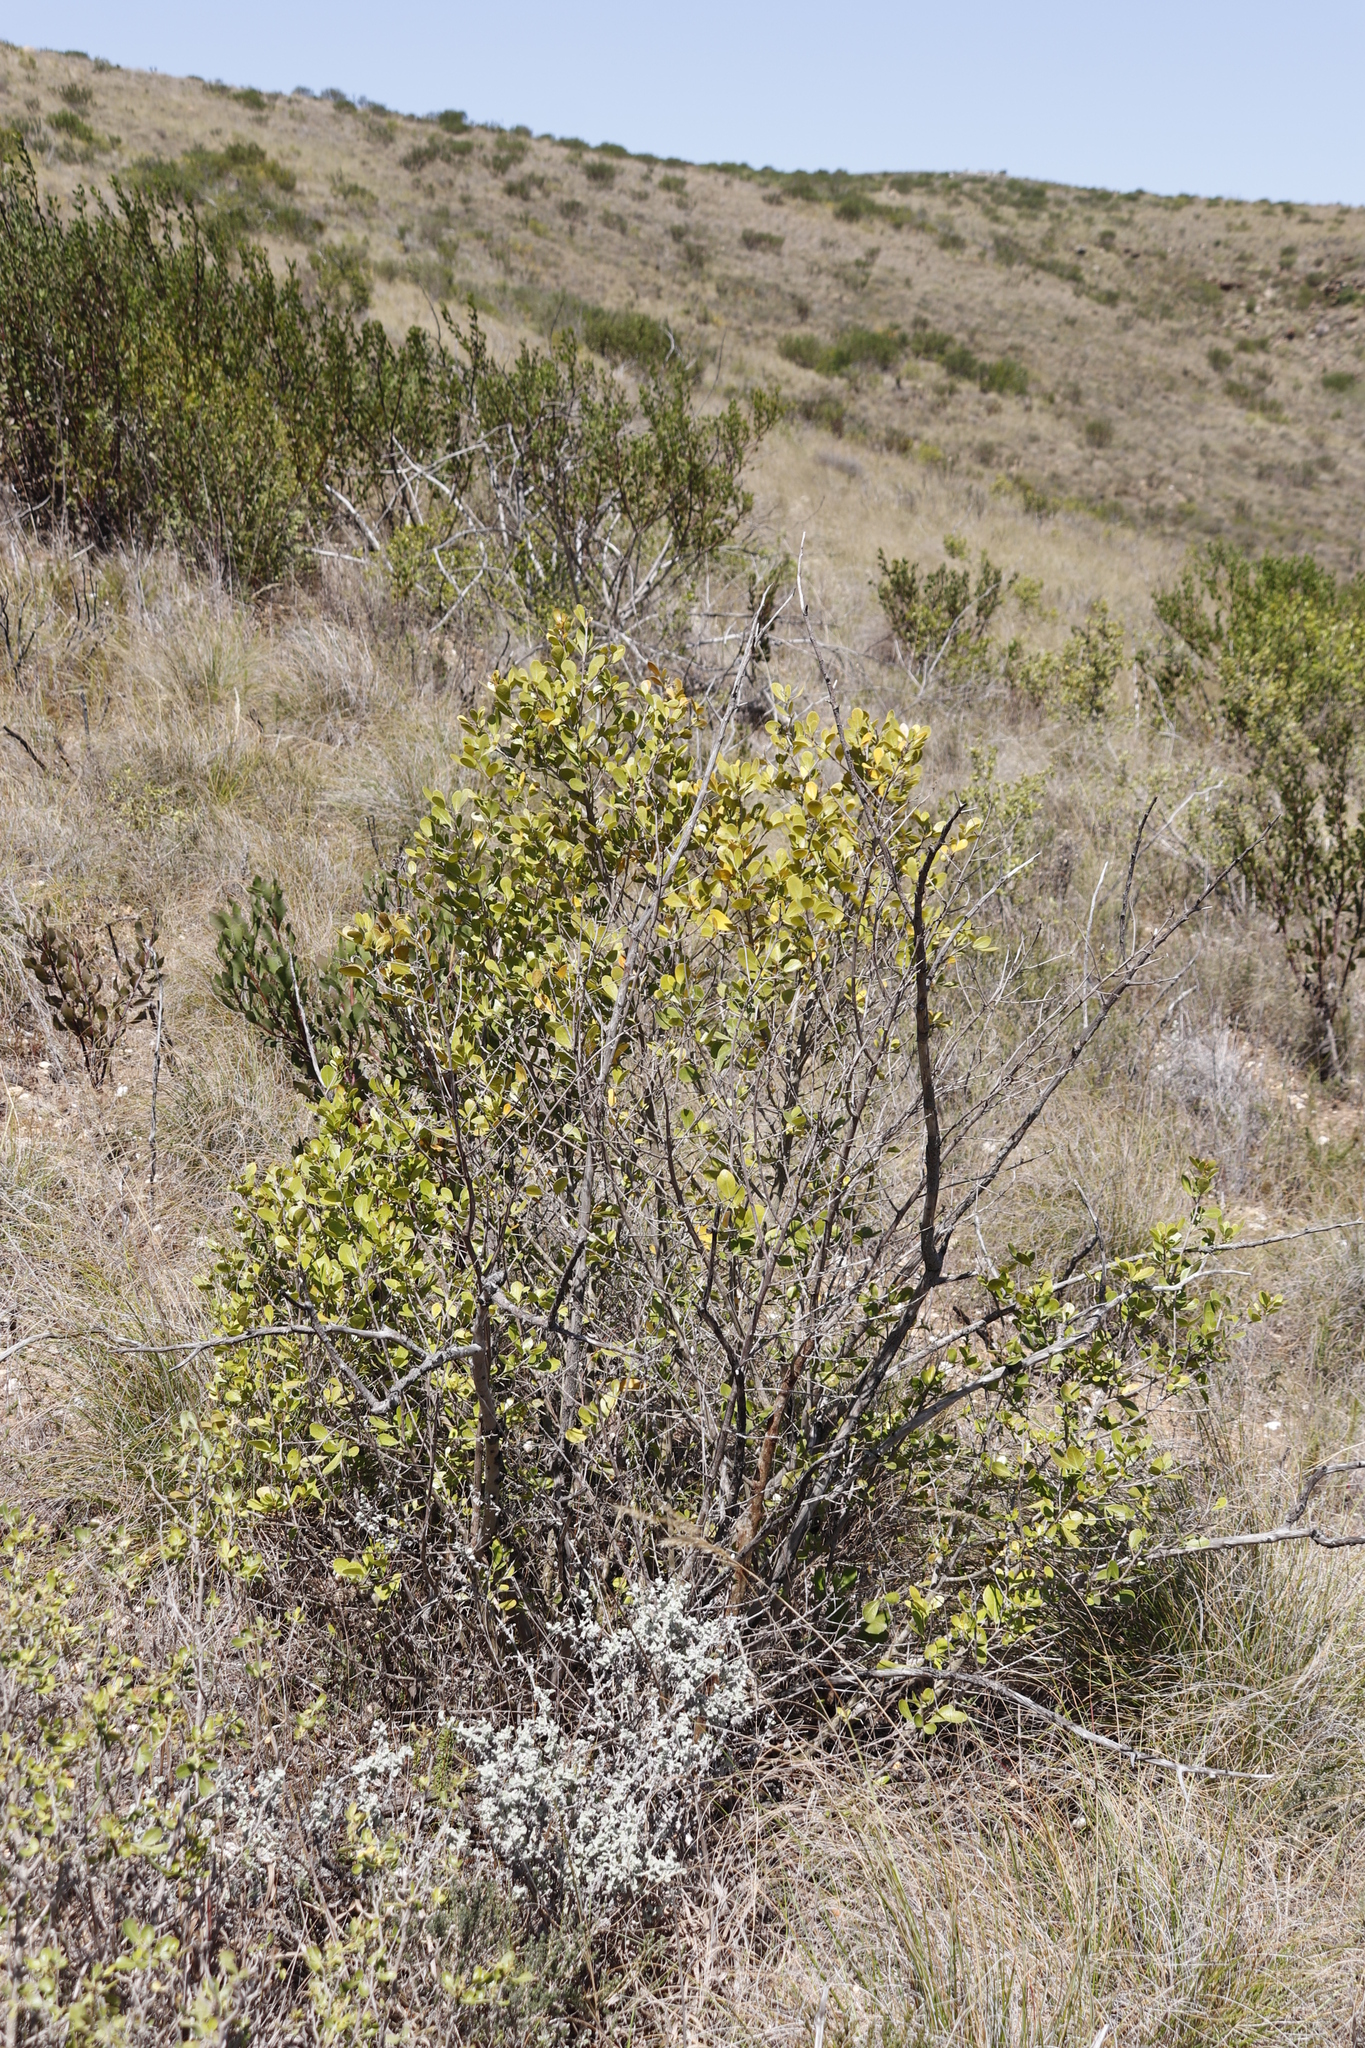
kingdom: Plantae
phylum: Tracheophyta
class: Magnoliopsida
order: Sapindales
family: Anacardiaceae
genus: Searsia
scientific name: Searsia lucida
